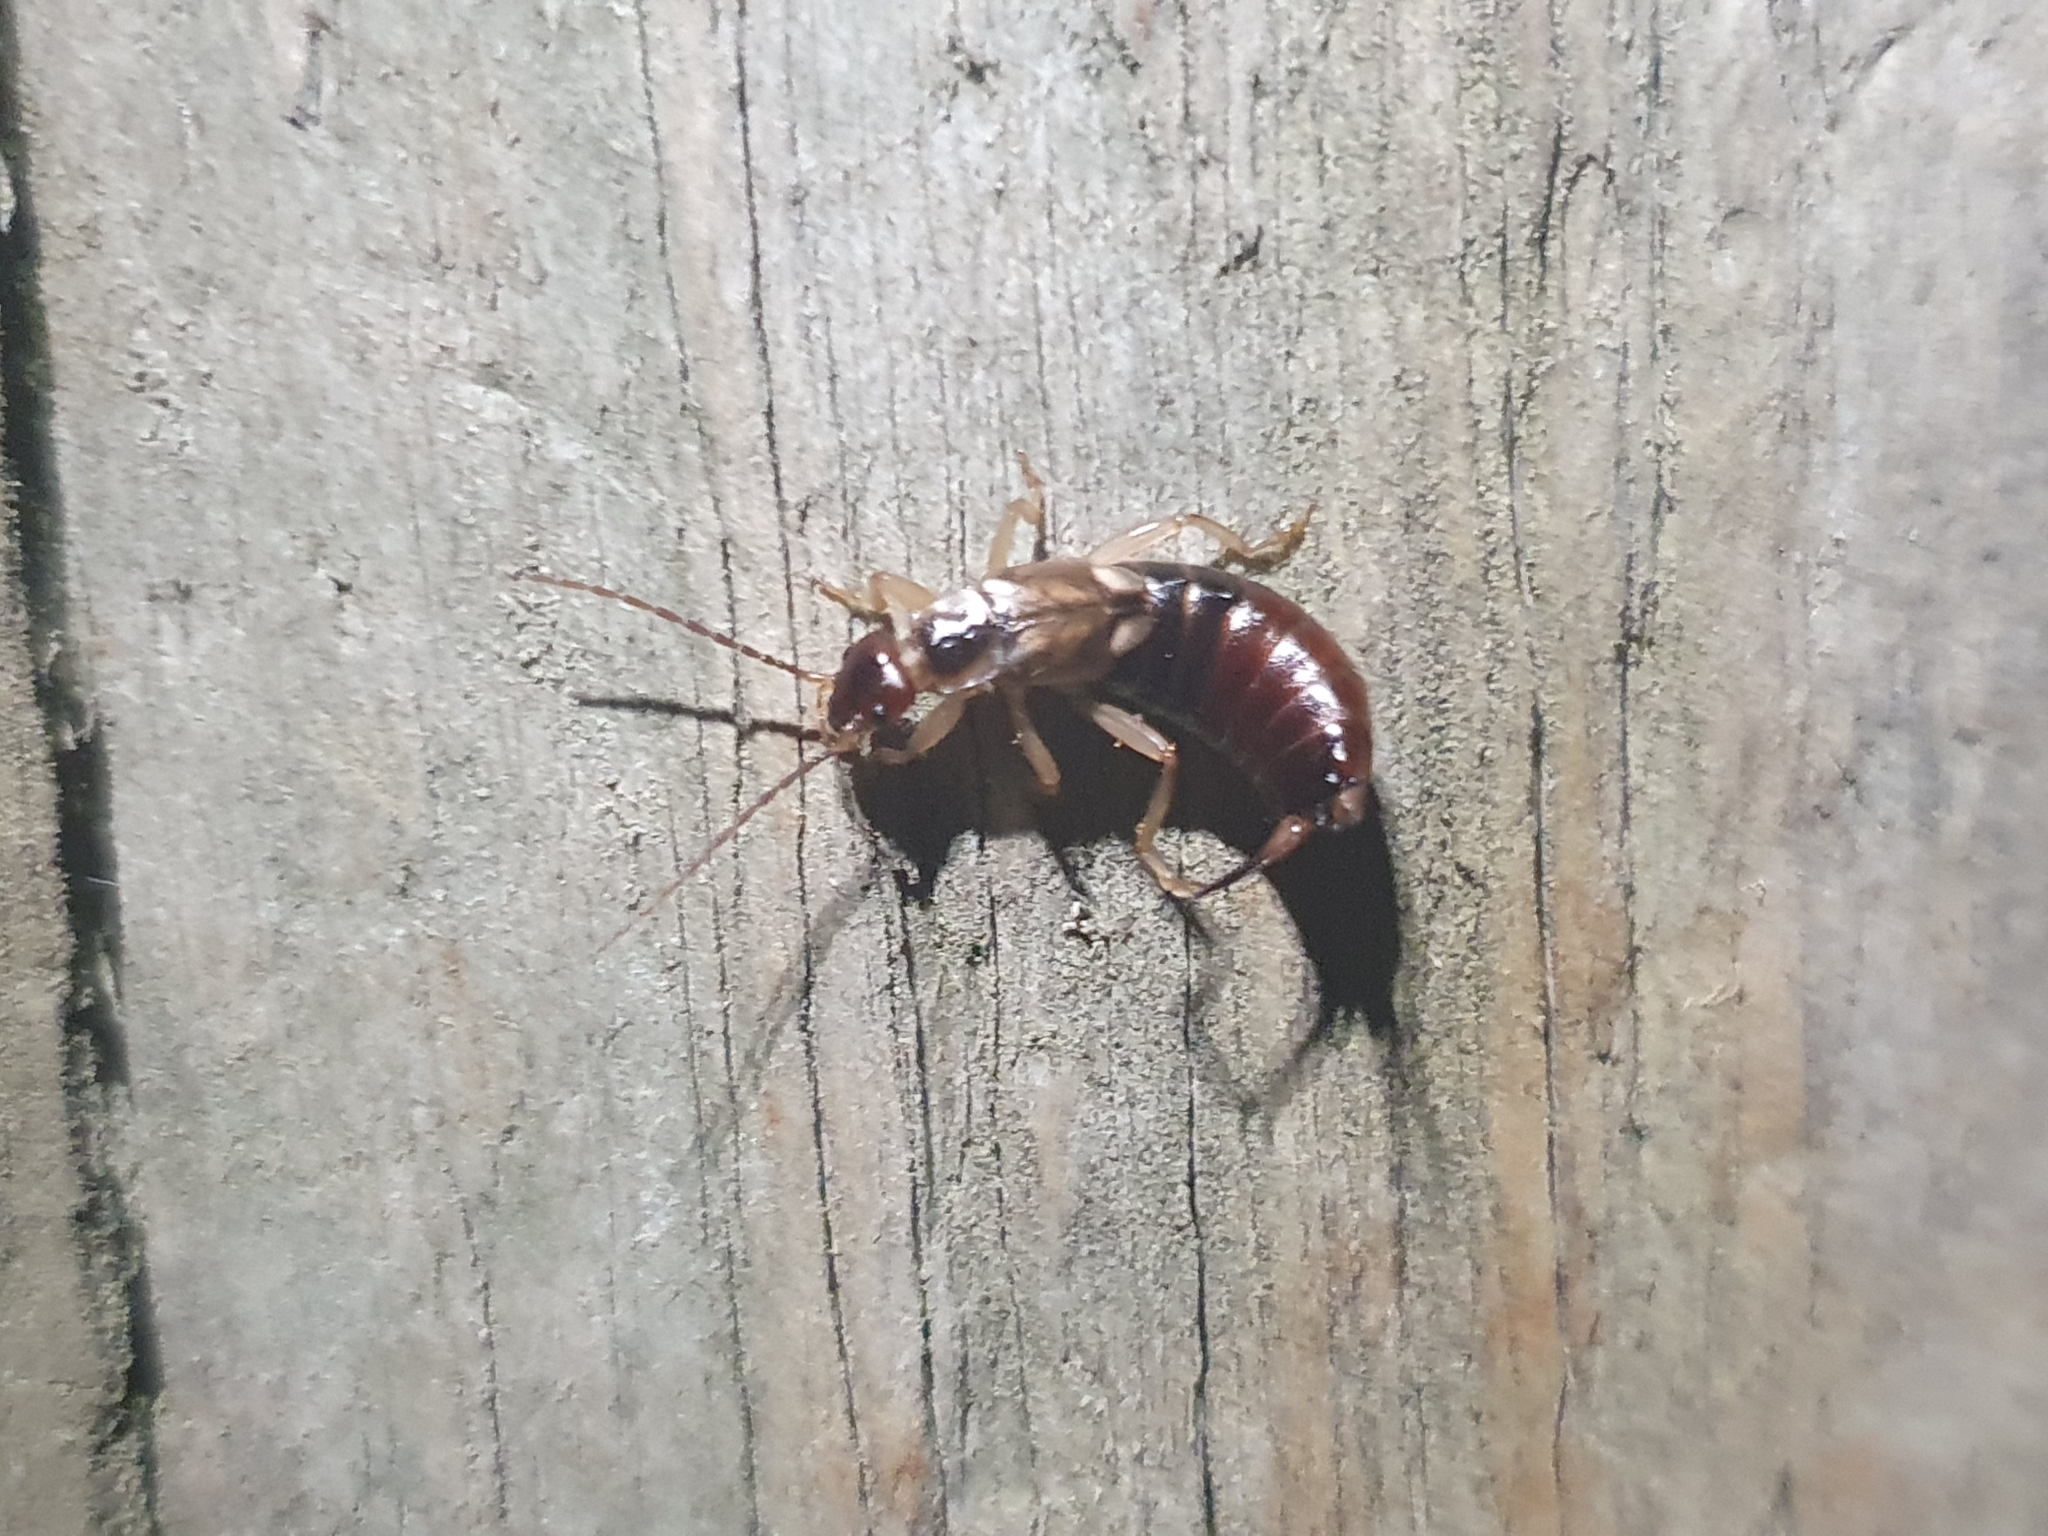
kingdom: Animalia
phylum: Arthropoda
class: Insecta
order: Dermaptera
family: Forficulidae
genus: Forficula
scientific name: Forficula
